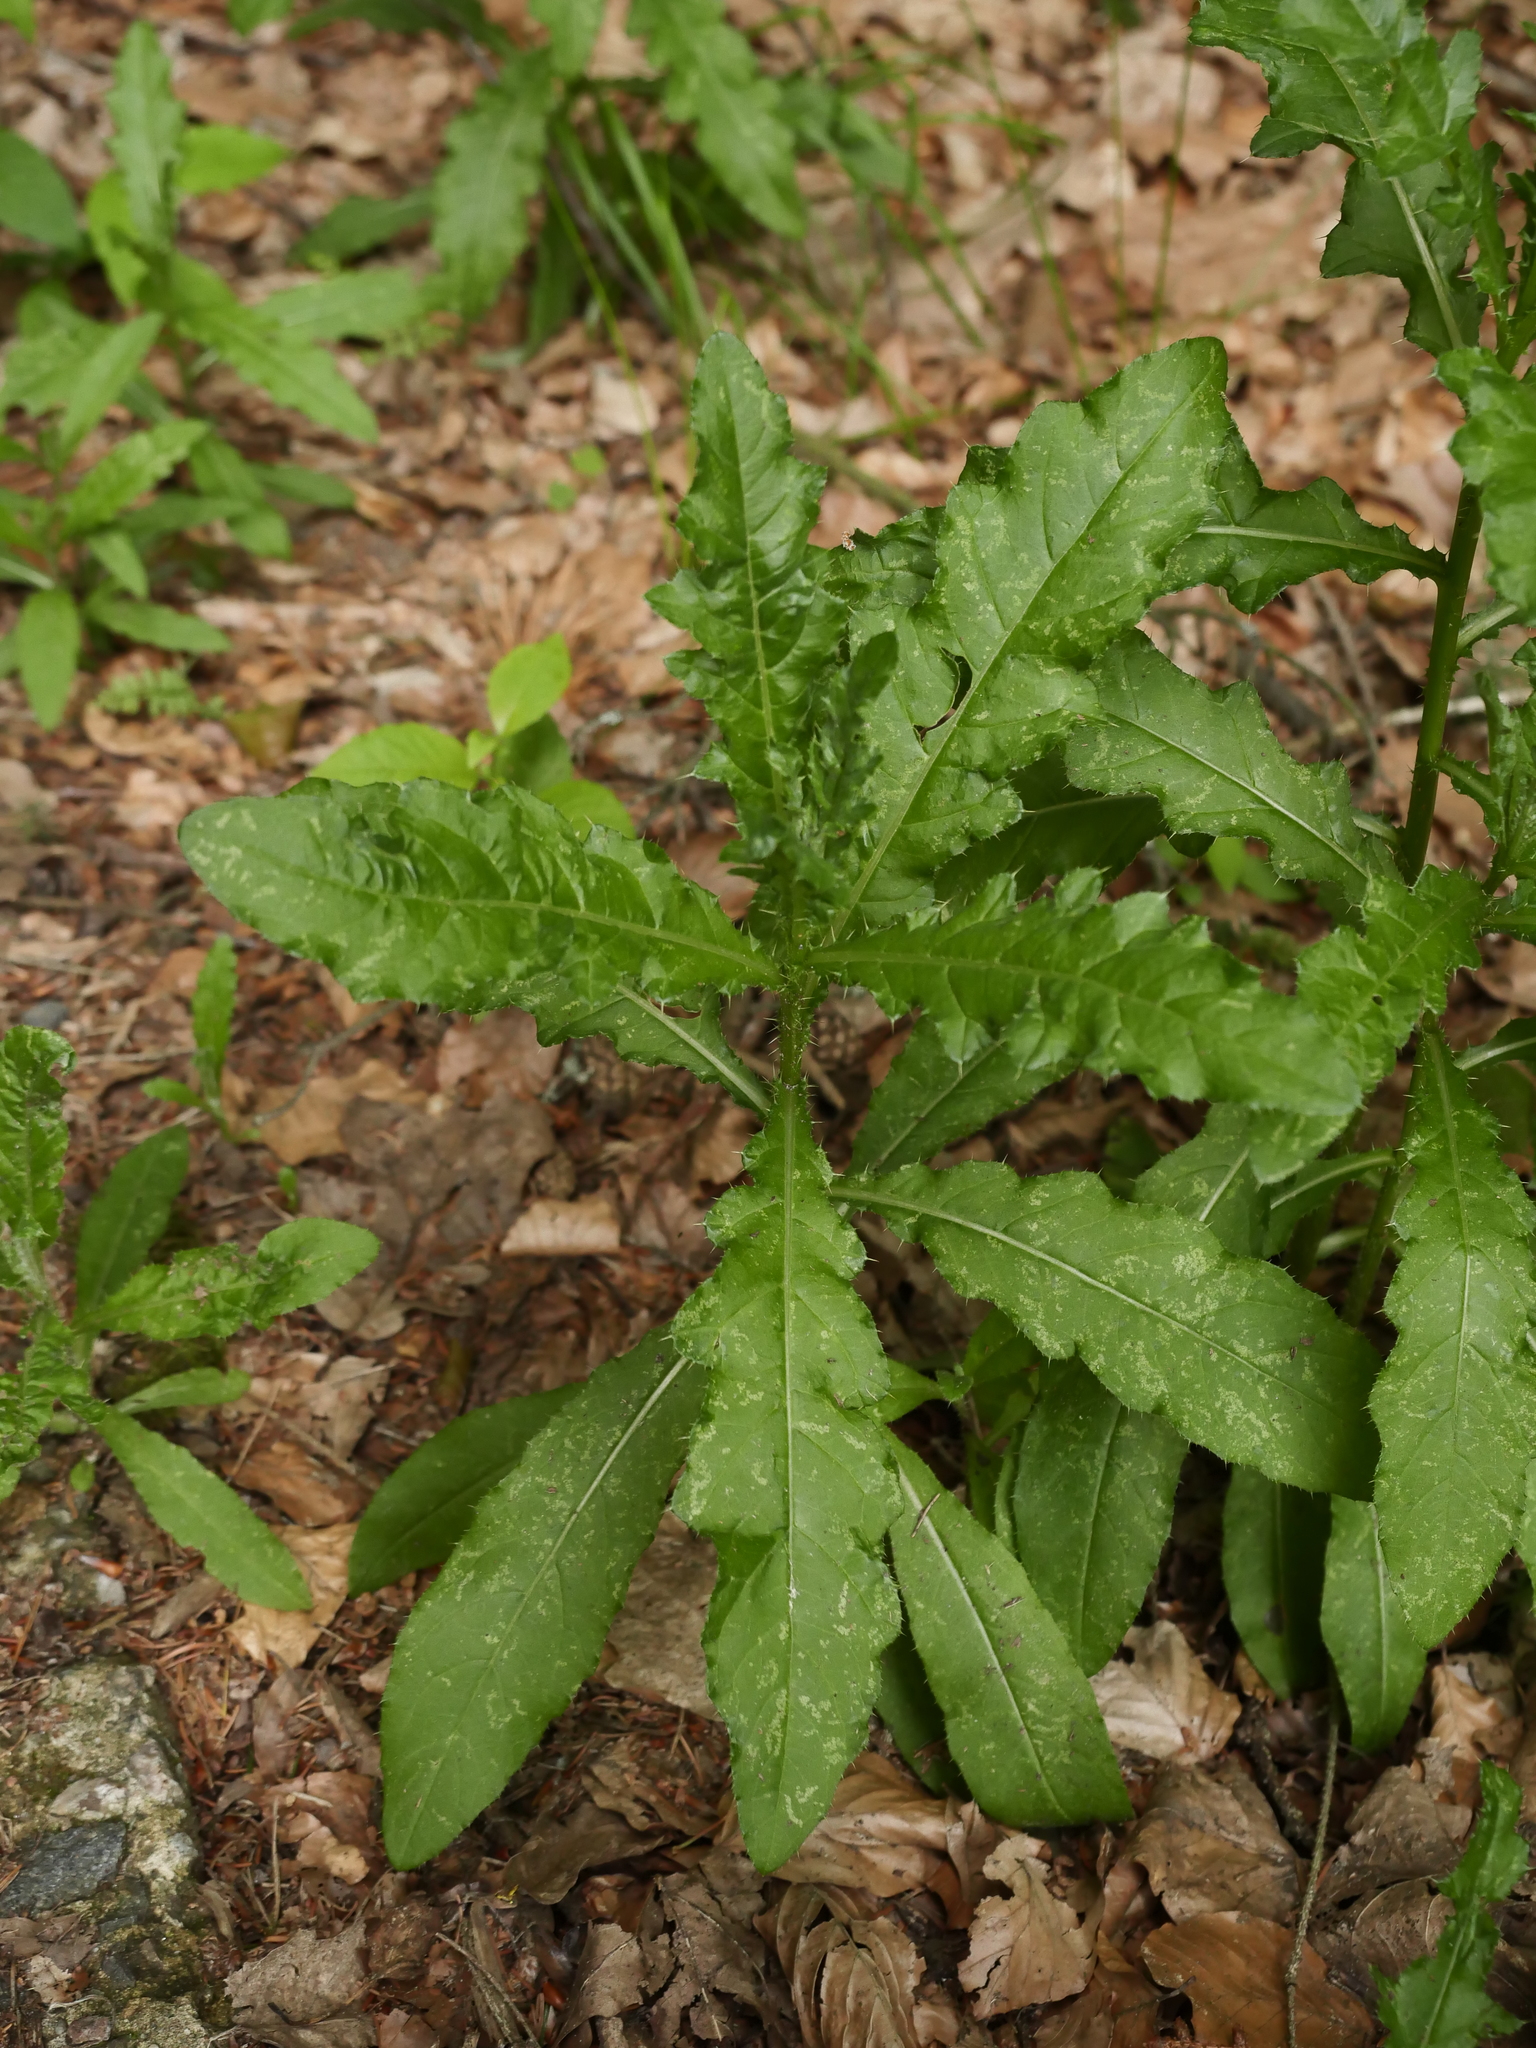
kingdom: Plantae
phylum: Tracheophyta
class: Magnoliopsida
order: Asterales
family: Asteraceae
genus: Cirsium
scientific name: Cirsium arvense
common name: Creeping thistle
